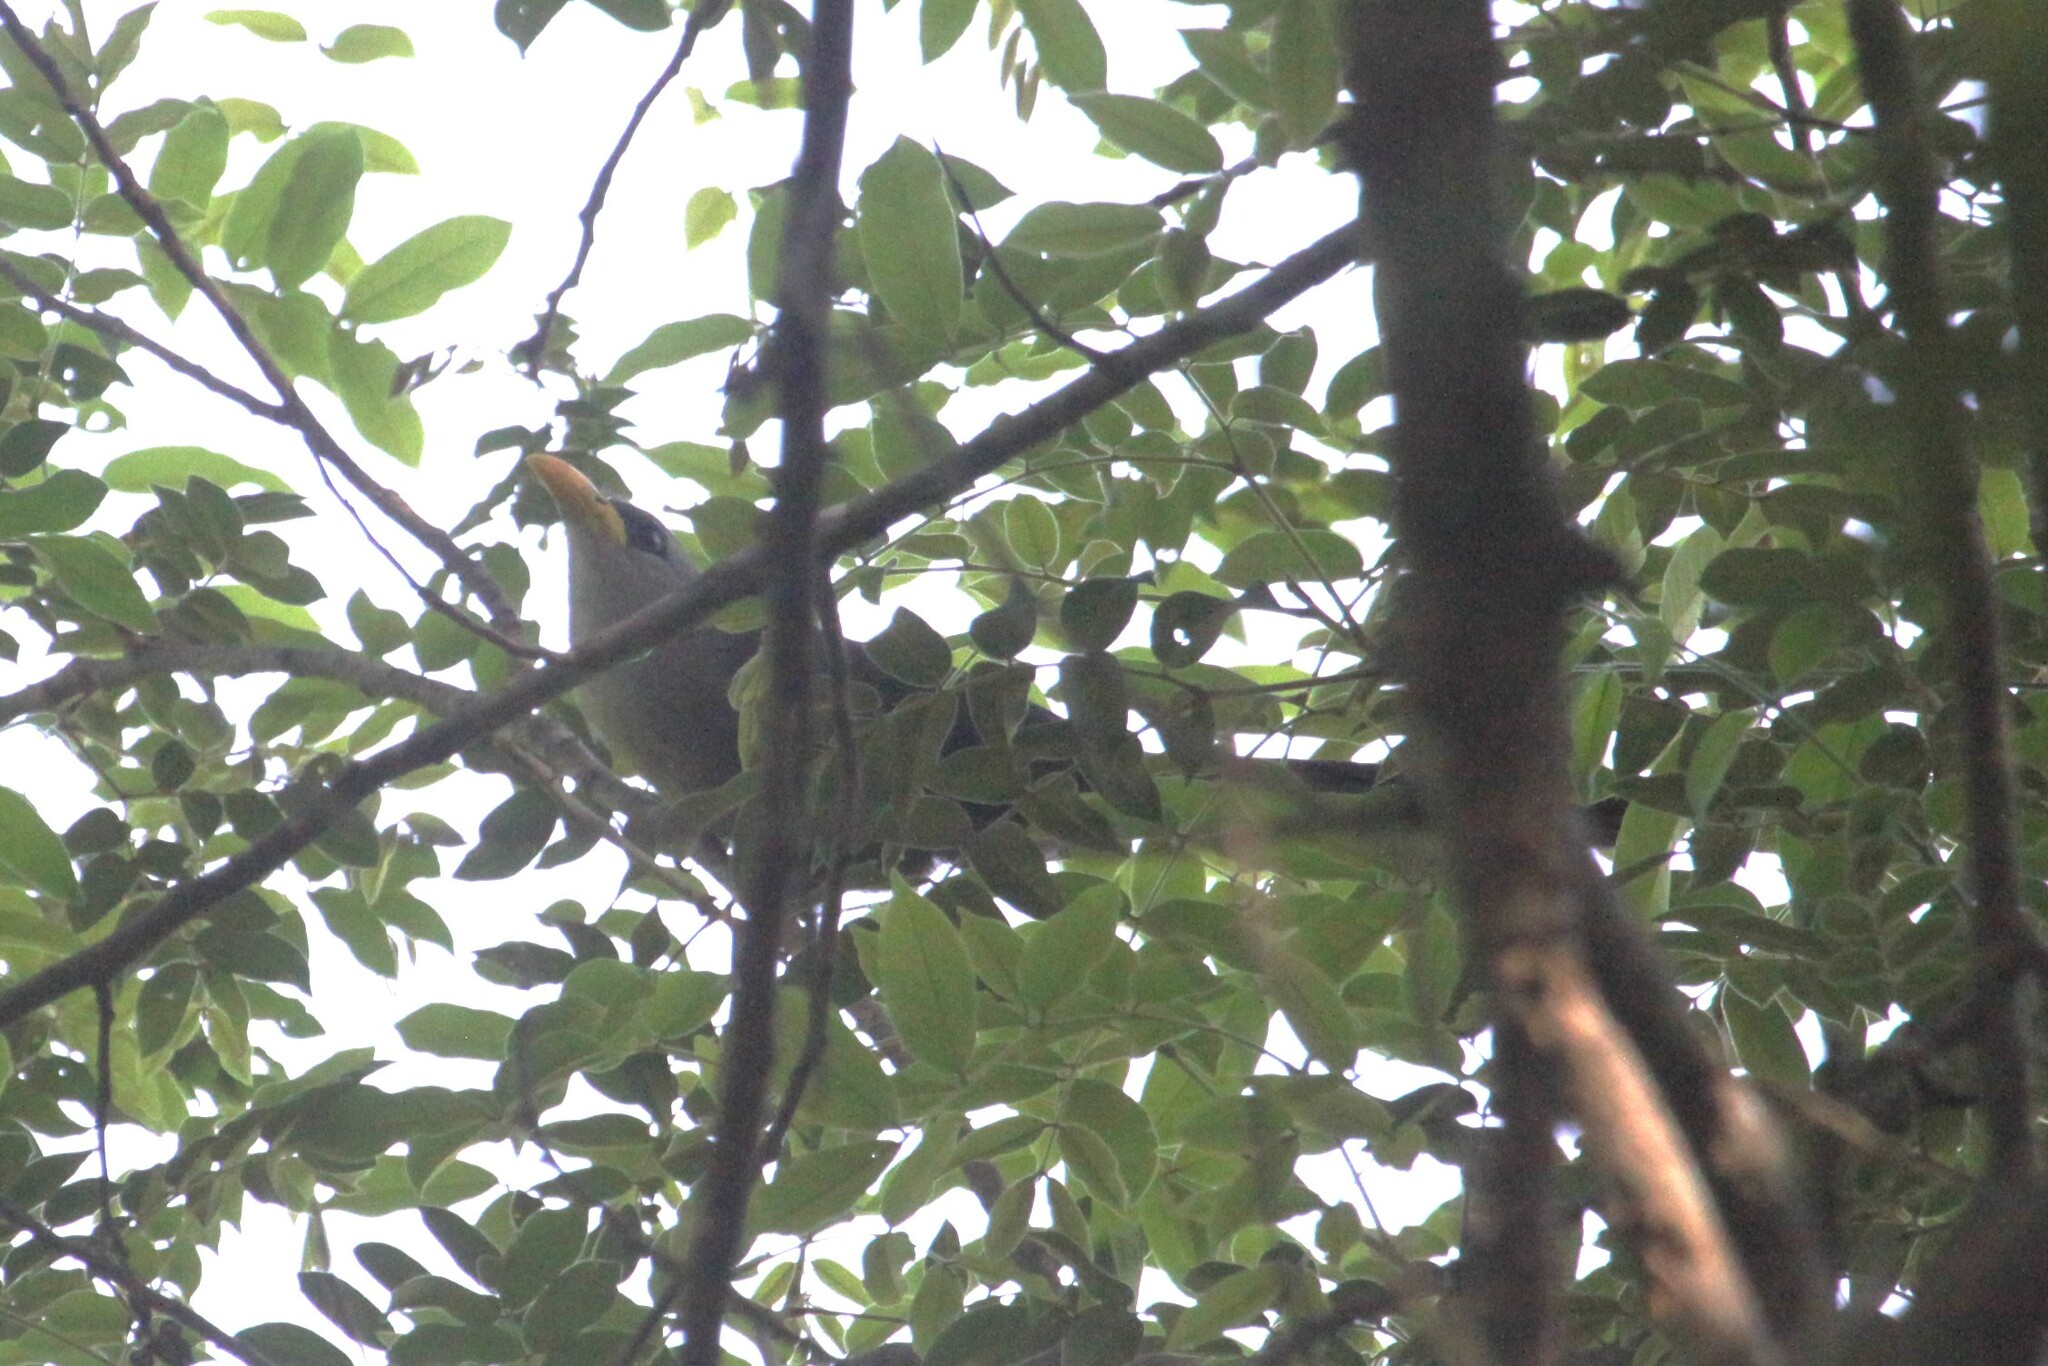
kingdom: Animalia
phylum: Chordata
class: Aves
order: Cuculiformes
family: Cuculidae
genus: Ceuthmochares
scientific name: Ceuthmochares australis
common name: Green malkoha
